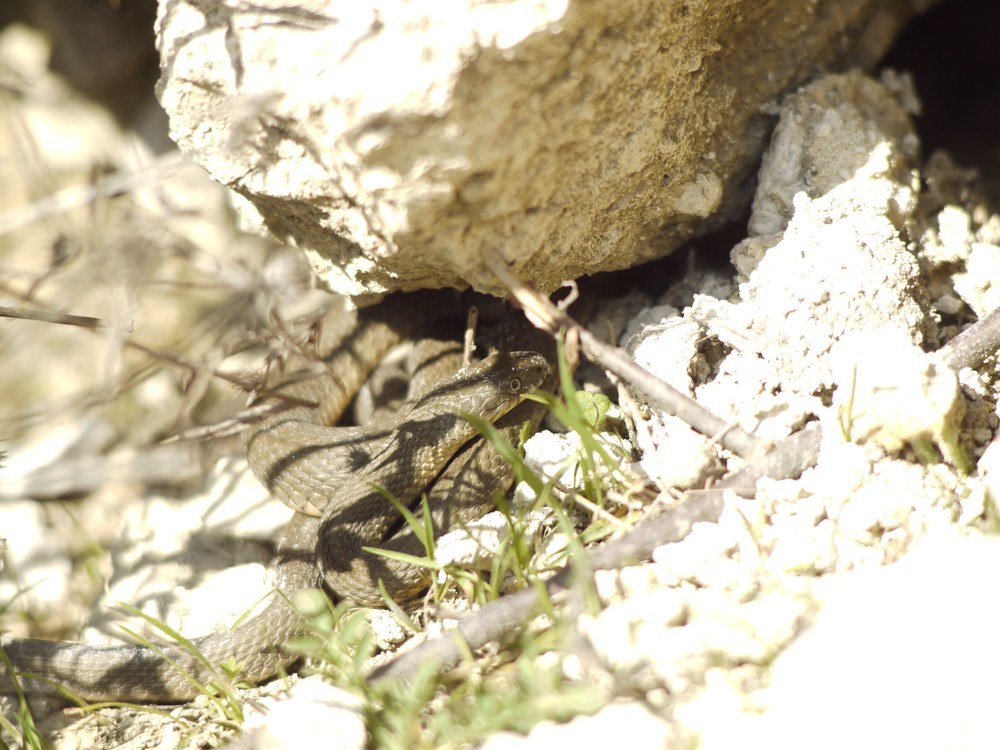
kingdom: Animalia
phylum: Chordata
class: Squamata
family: Colubridae
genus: Natrix
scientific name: Natrix tessellata
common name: Dice snake
